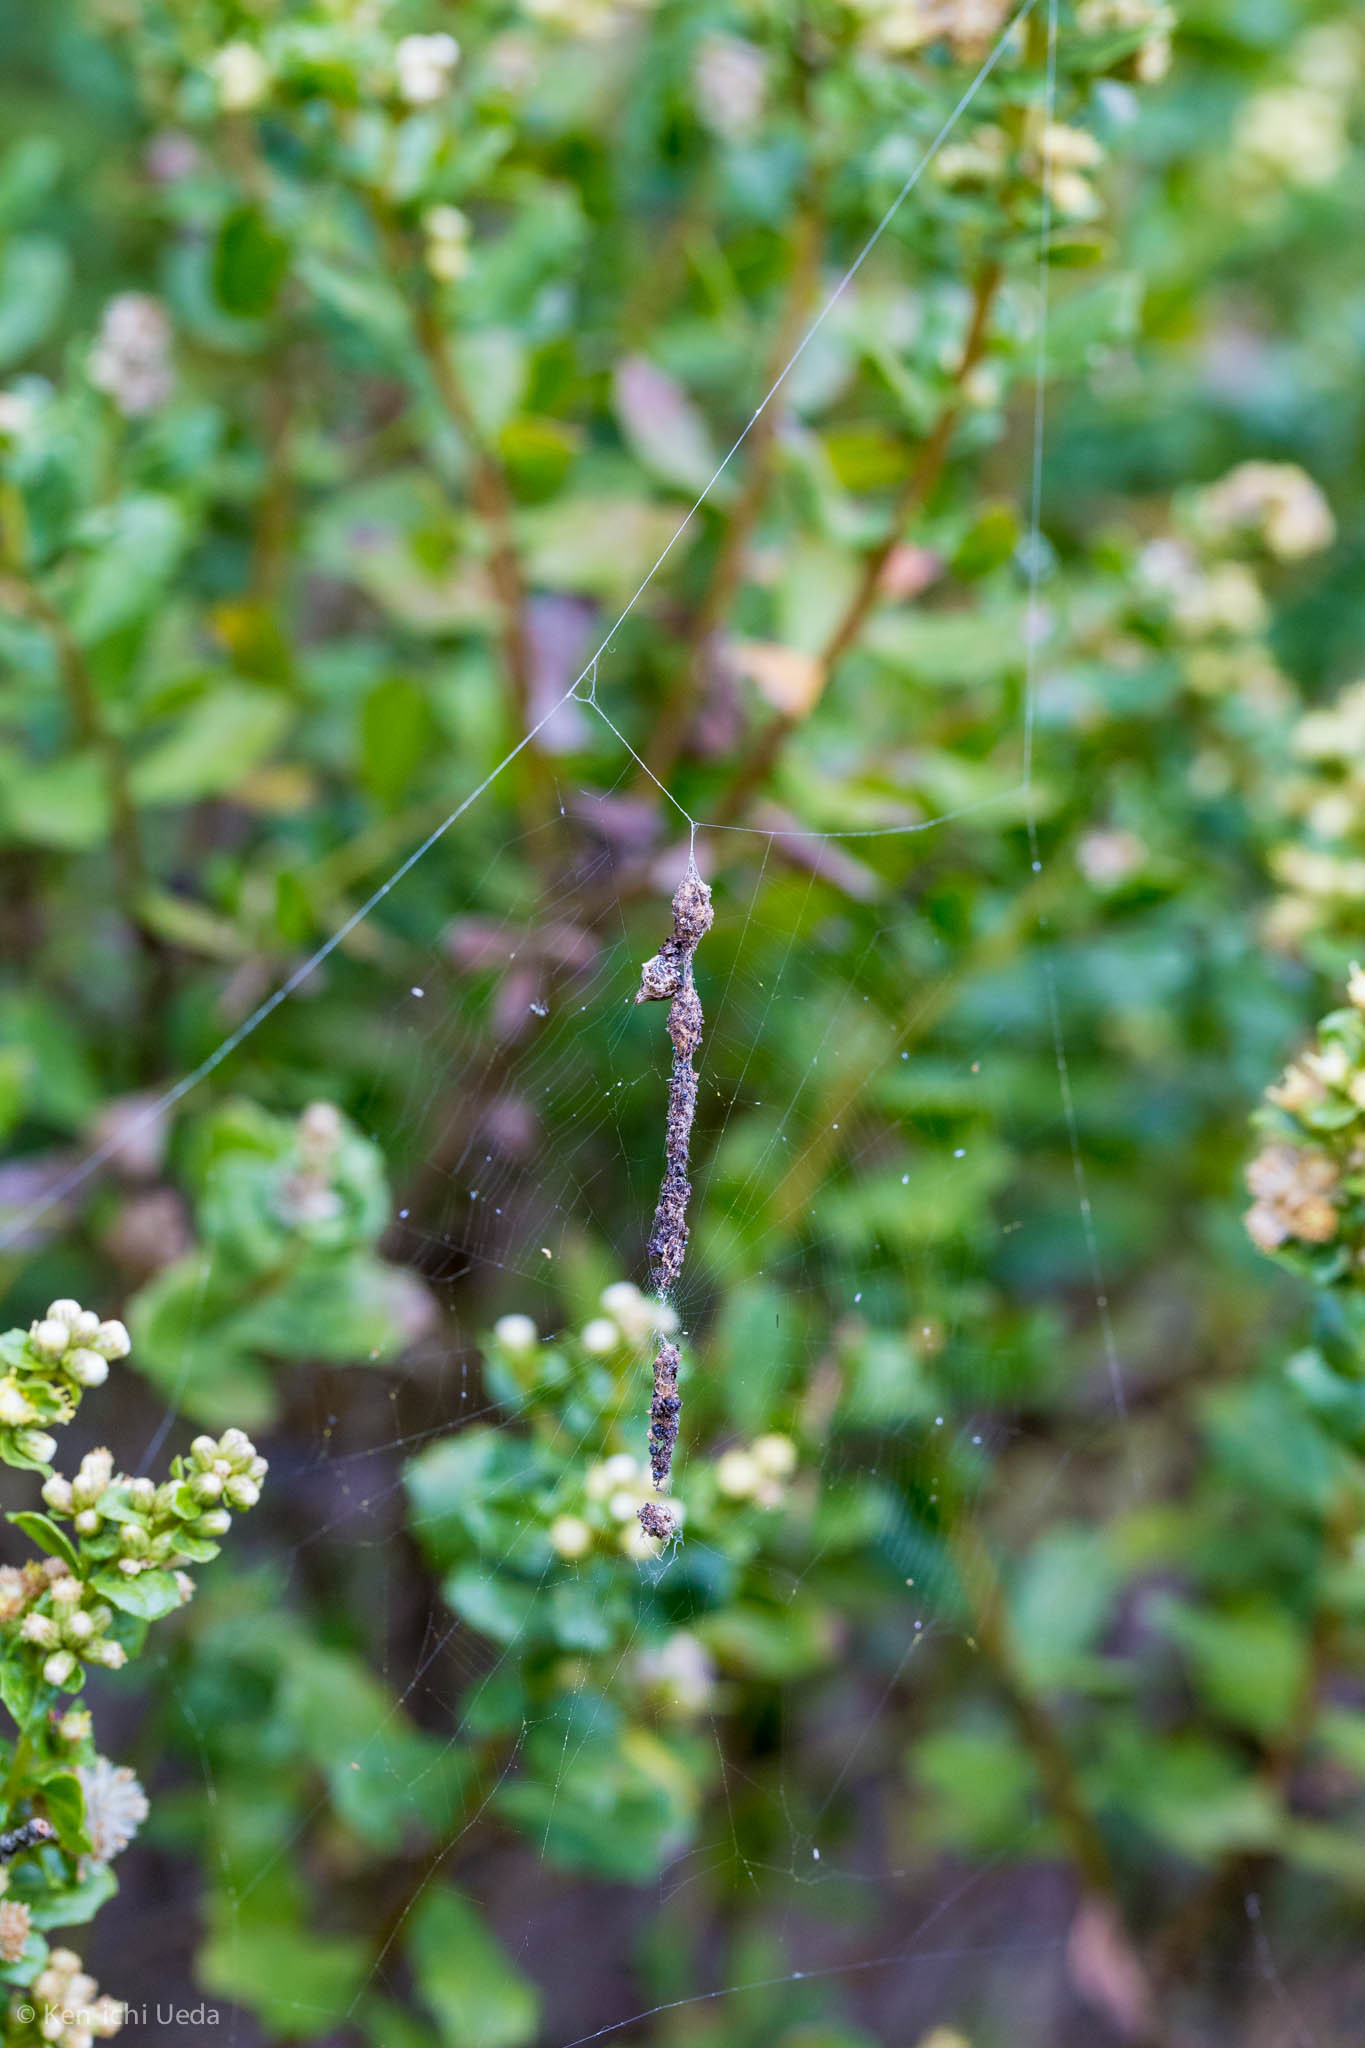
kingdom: Animalia
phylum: Arthropoda
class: Arachnida
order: Araneae
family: Araneidae
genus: Cyclosa
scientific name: Cyclosa turbinata
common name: Orb weavers
